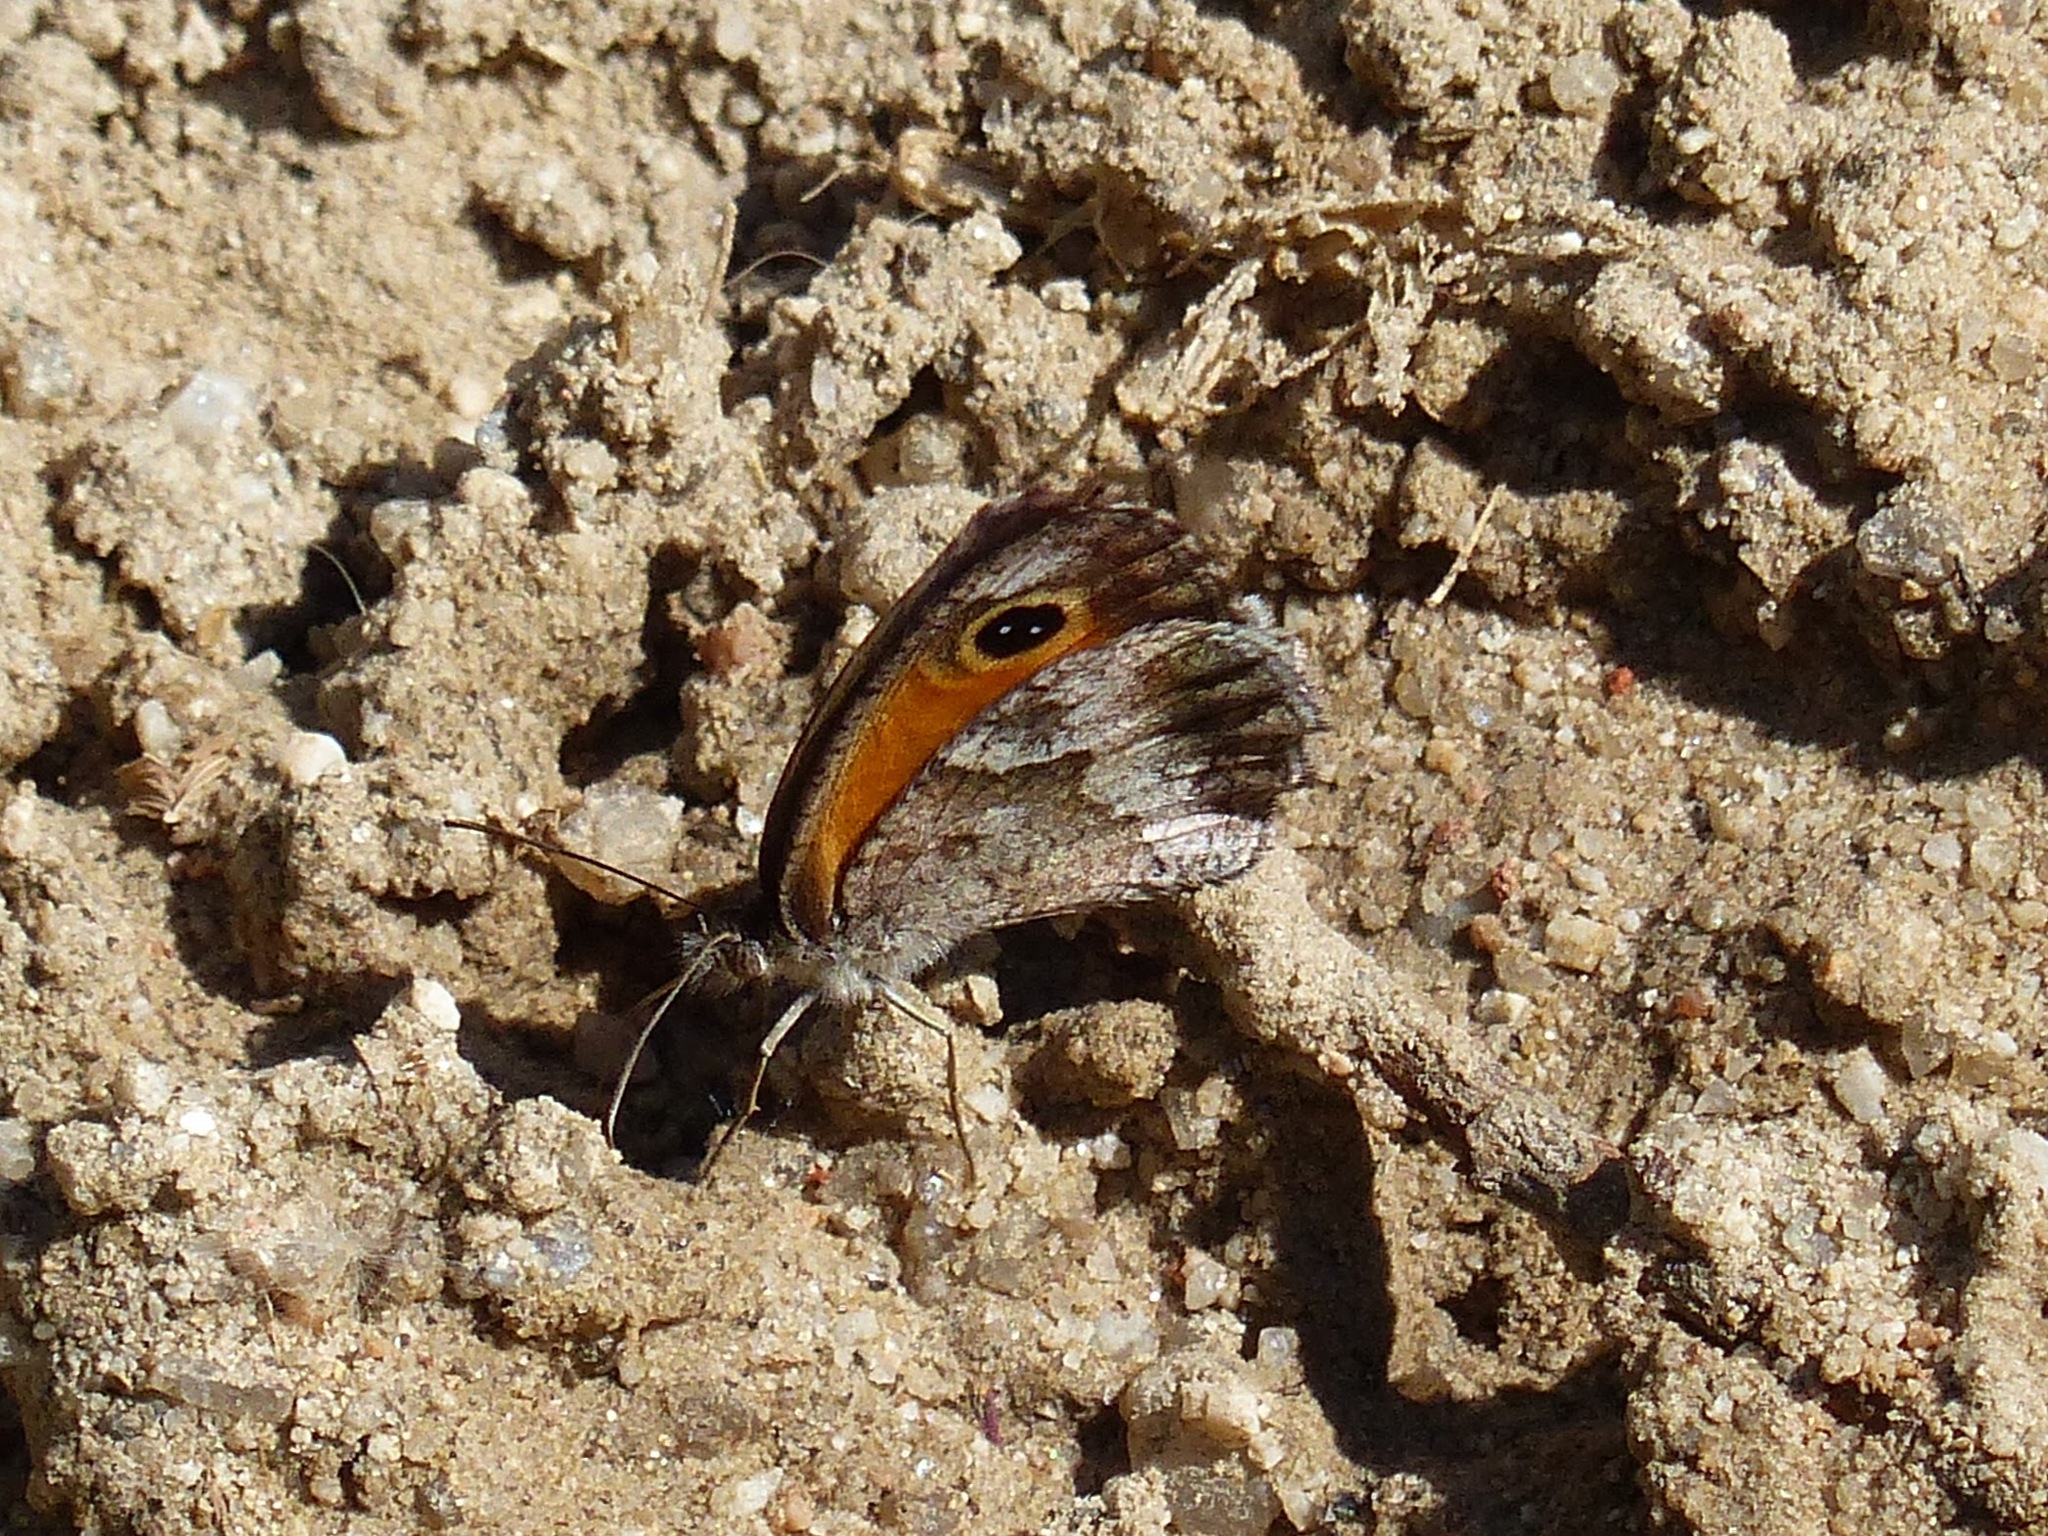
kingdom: Animalia
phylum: Arthropoda
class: Insecta
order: Lepidoptera
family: Nymphalidae
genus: Pyronia
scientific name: Pyronia cecilia
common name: Southern gatekeeper
